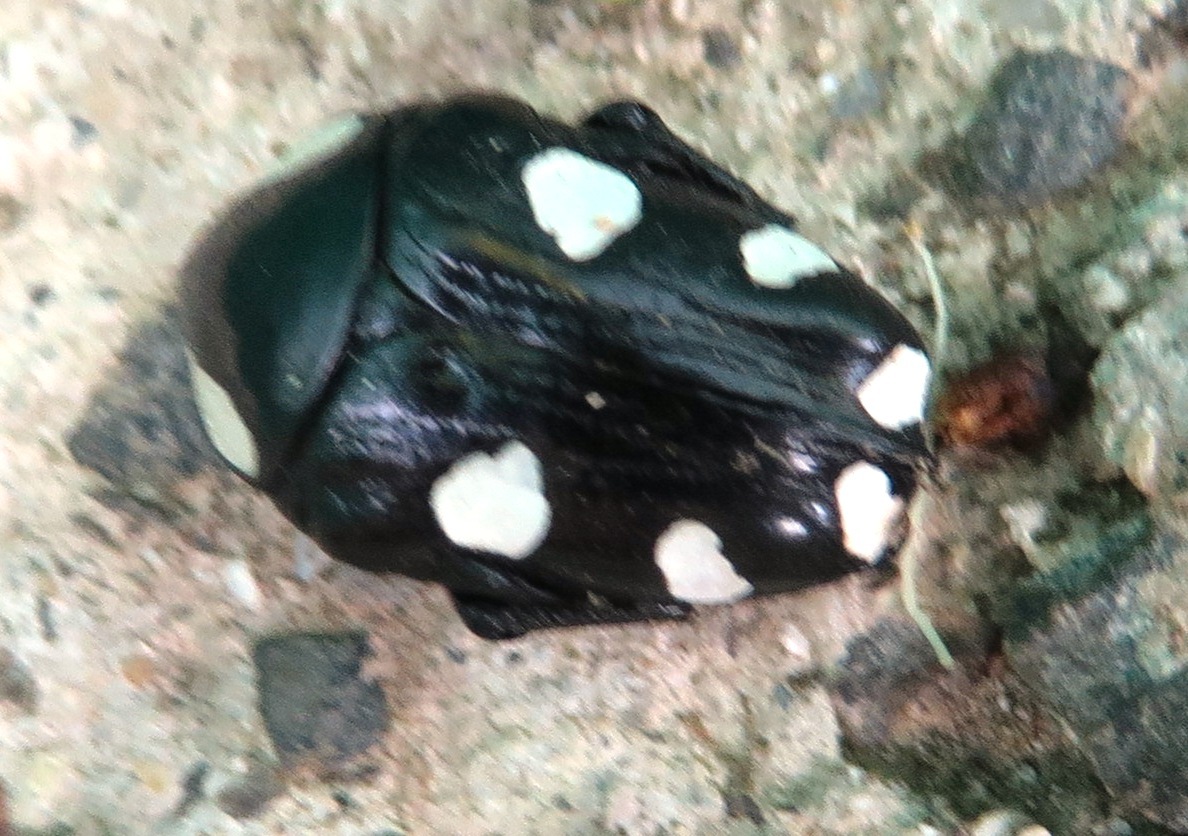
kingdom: Animalia
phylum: Arthropoda
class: Insecta
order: Coleoptera
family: Scarabaeidae
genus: Mausoleopsis
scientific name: Mausoleopsis amabilis
